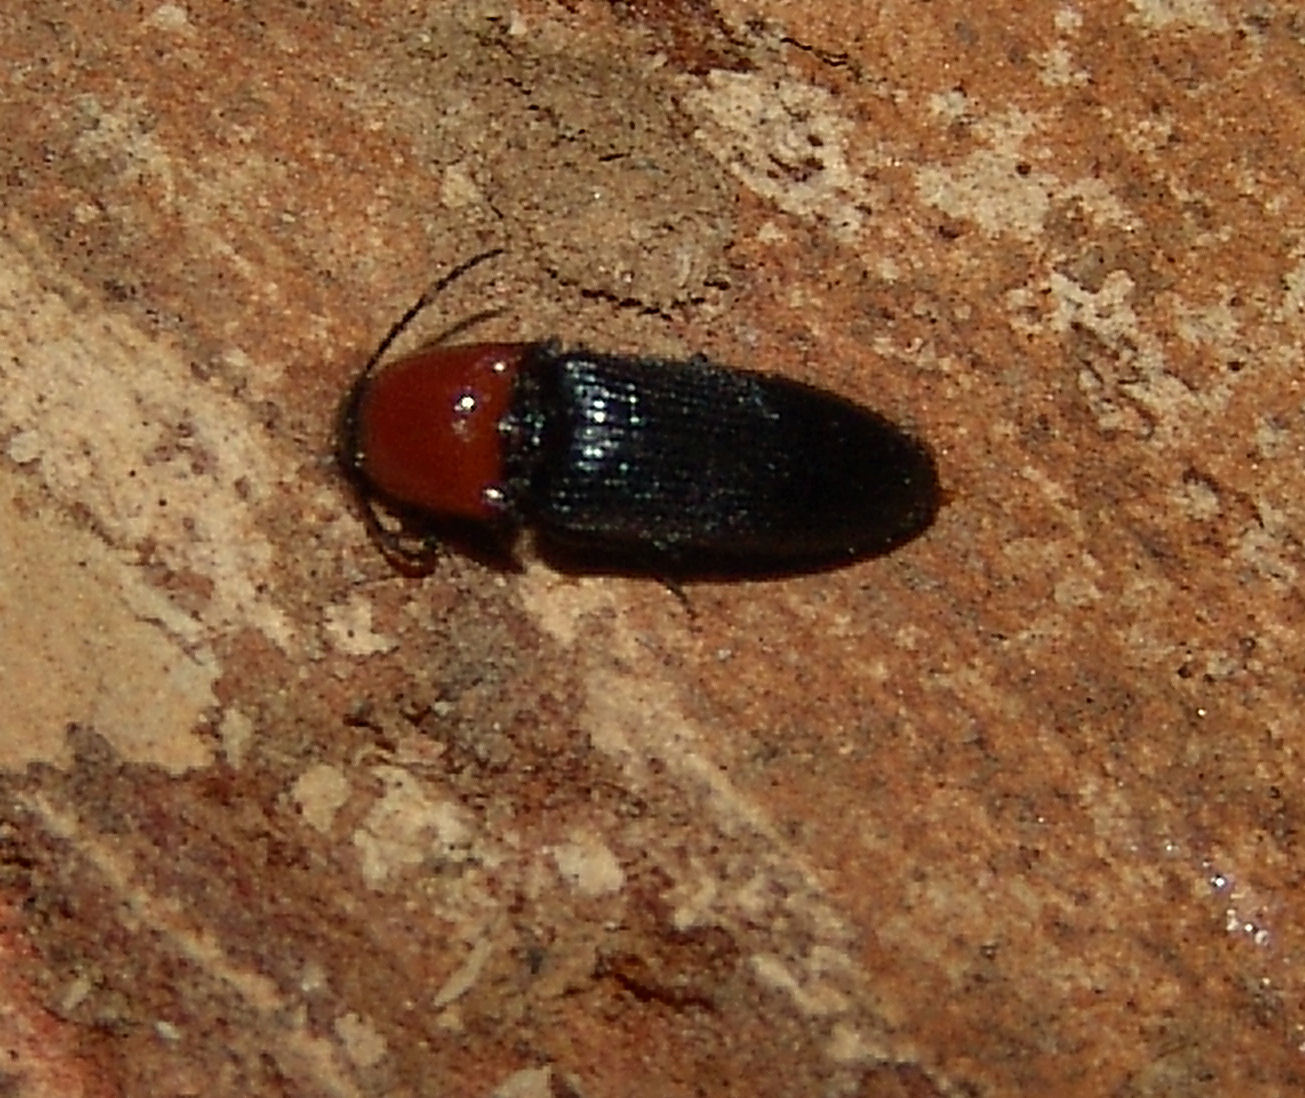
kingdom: Animalia
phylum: Arthropoda
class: Insecta
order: Coleoptera
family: Elateridae
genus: Ampedus
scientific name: Ampedus rubricollis
